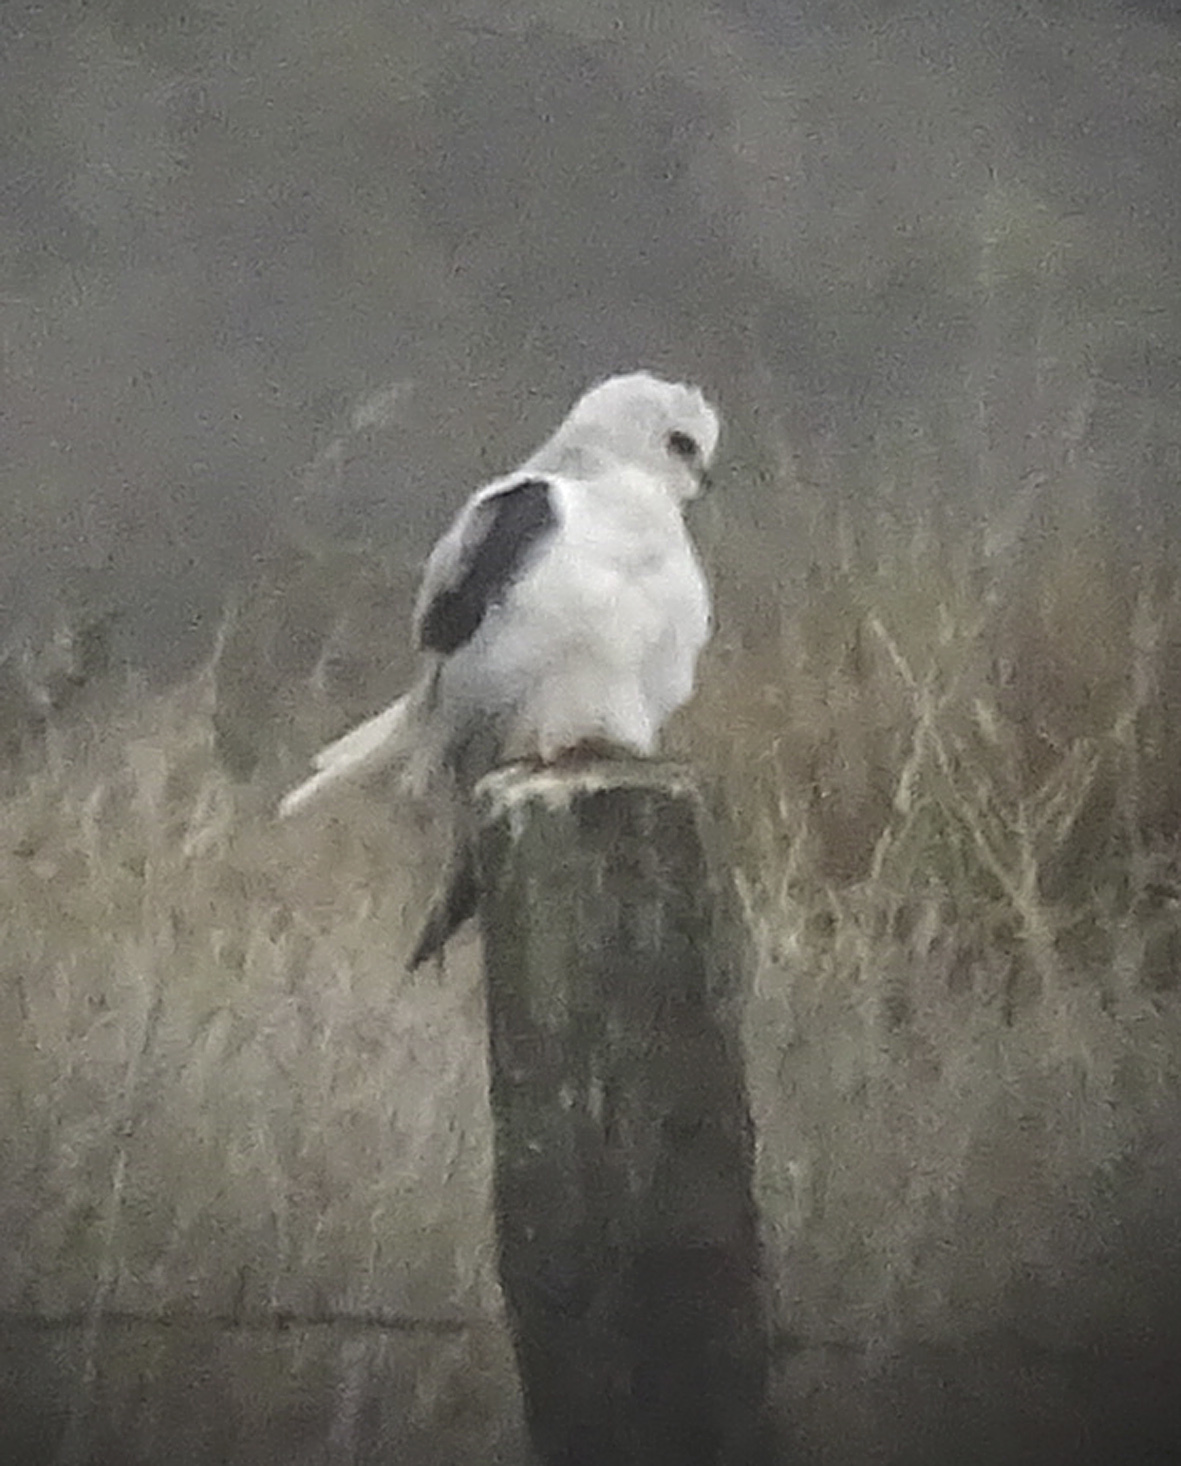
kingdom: Animalia
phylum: Chordata
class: Aves
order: Accipitriformes
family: Accipitridae
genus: Elanus
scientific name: Elanus leucurus
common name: White-tailed kite
